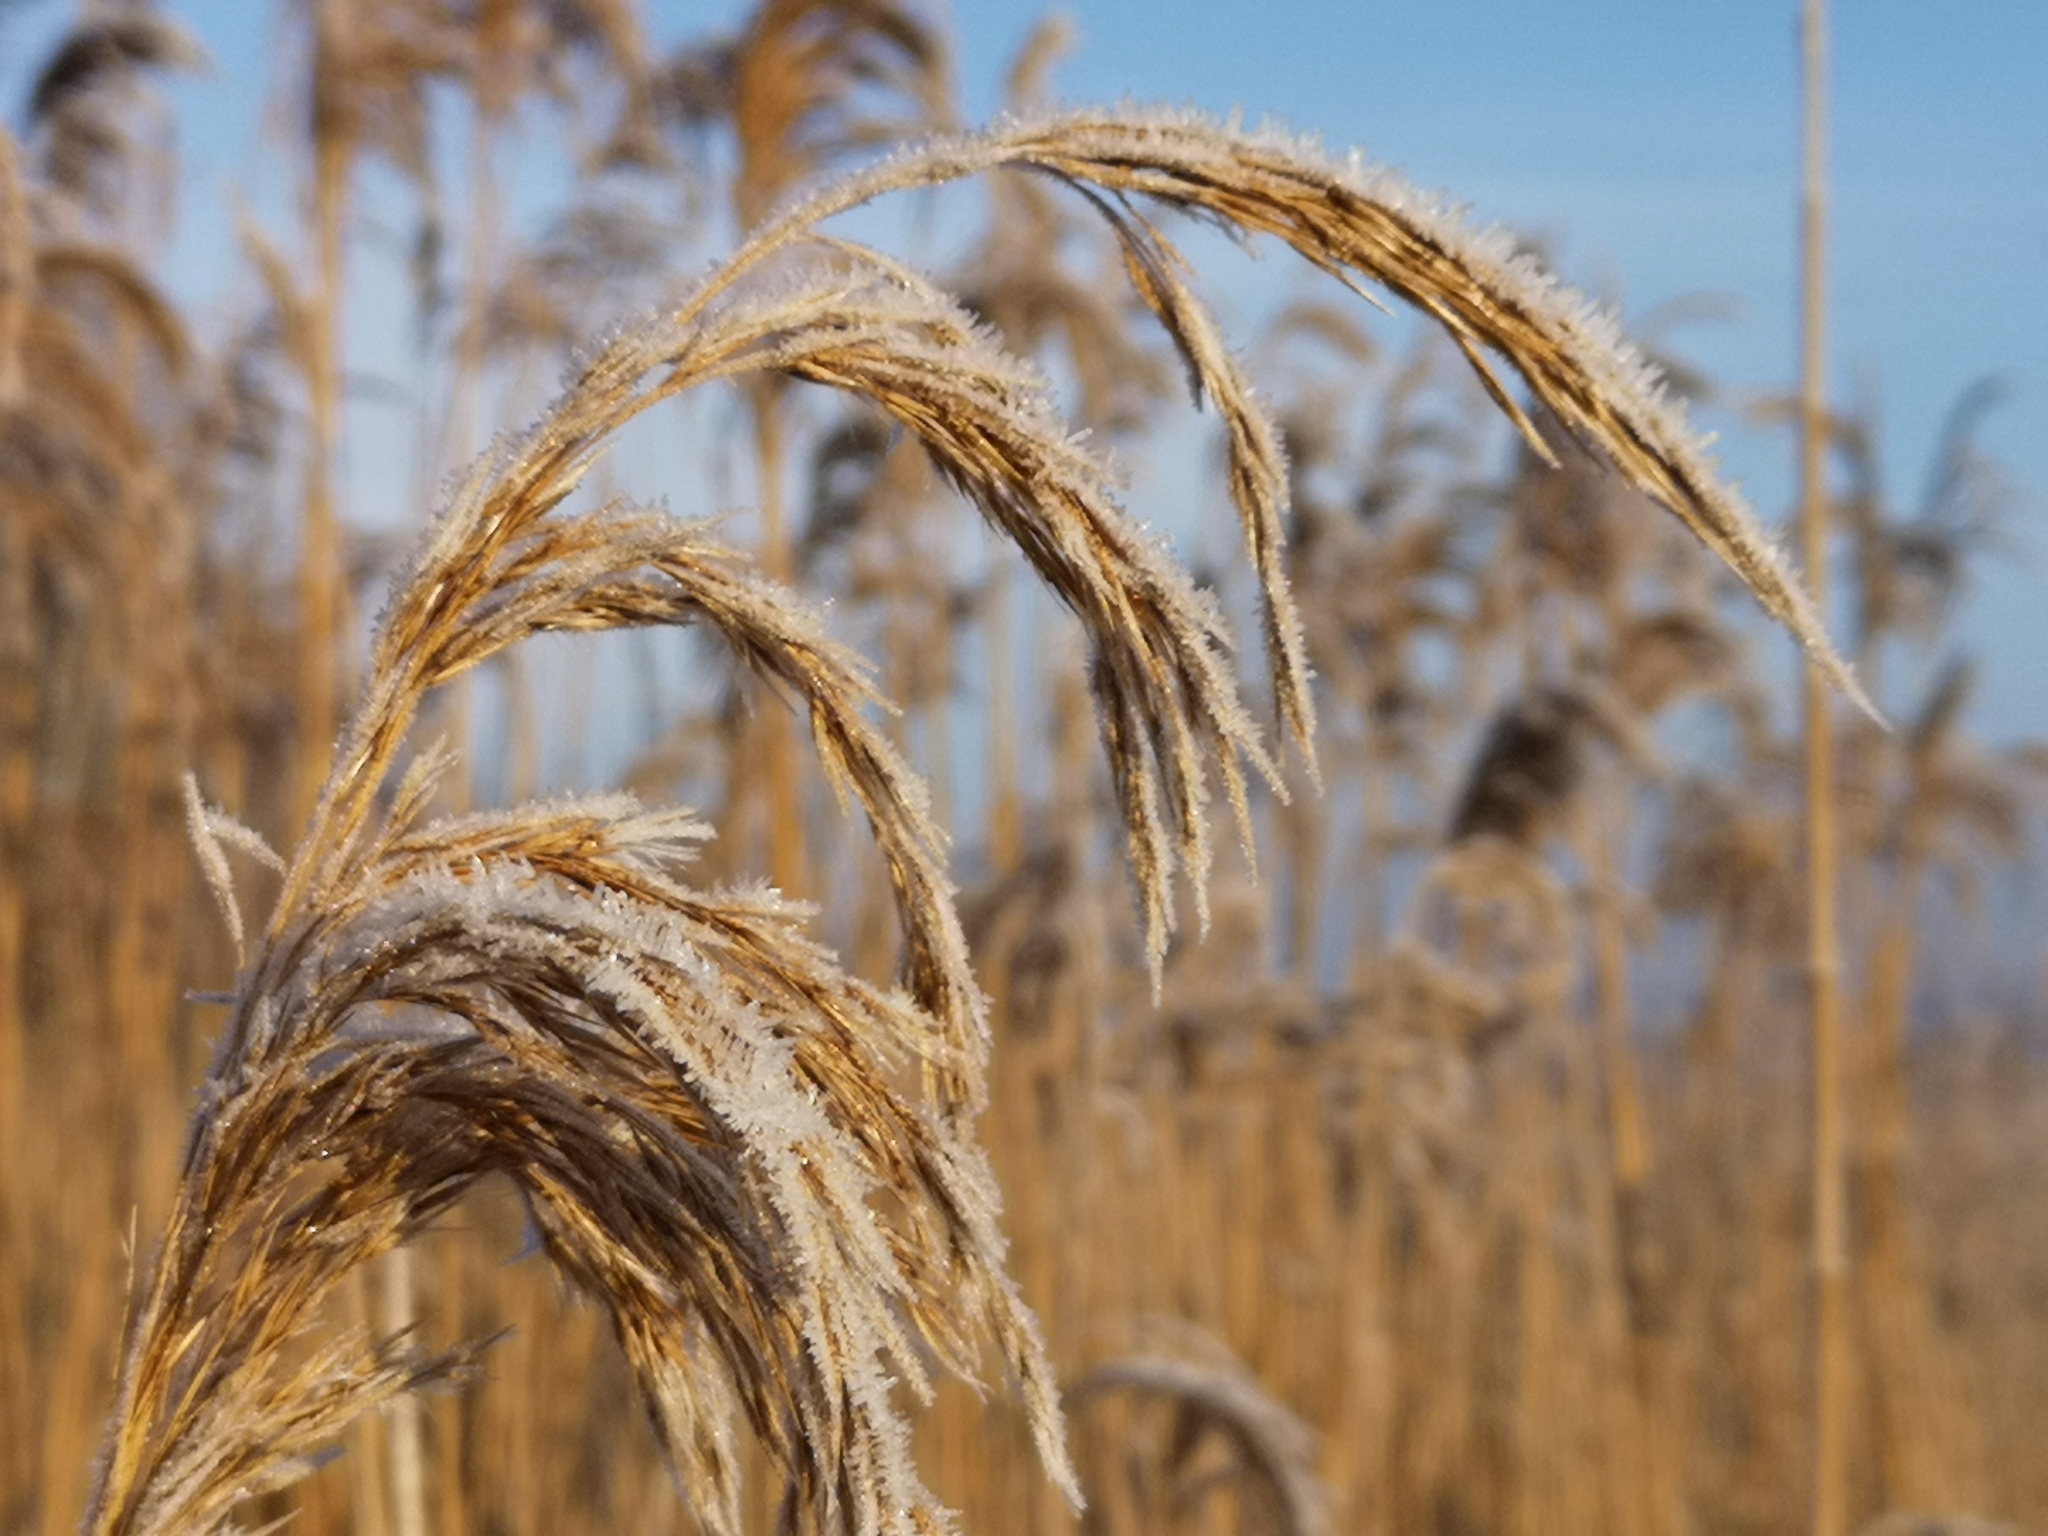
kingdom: Plantae
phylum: Tracheophyta
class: Liliopsida
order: Poales
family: Poaceae
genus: Phragmites
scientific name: Phragmites australis
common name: Common reed
